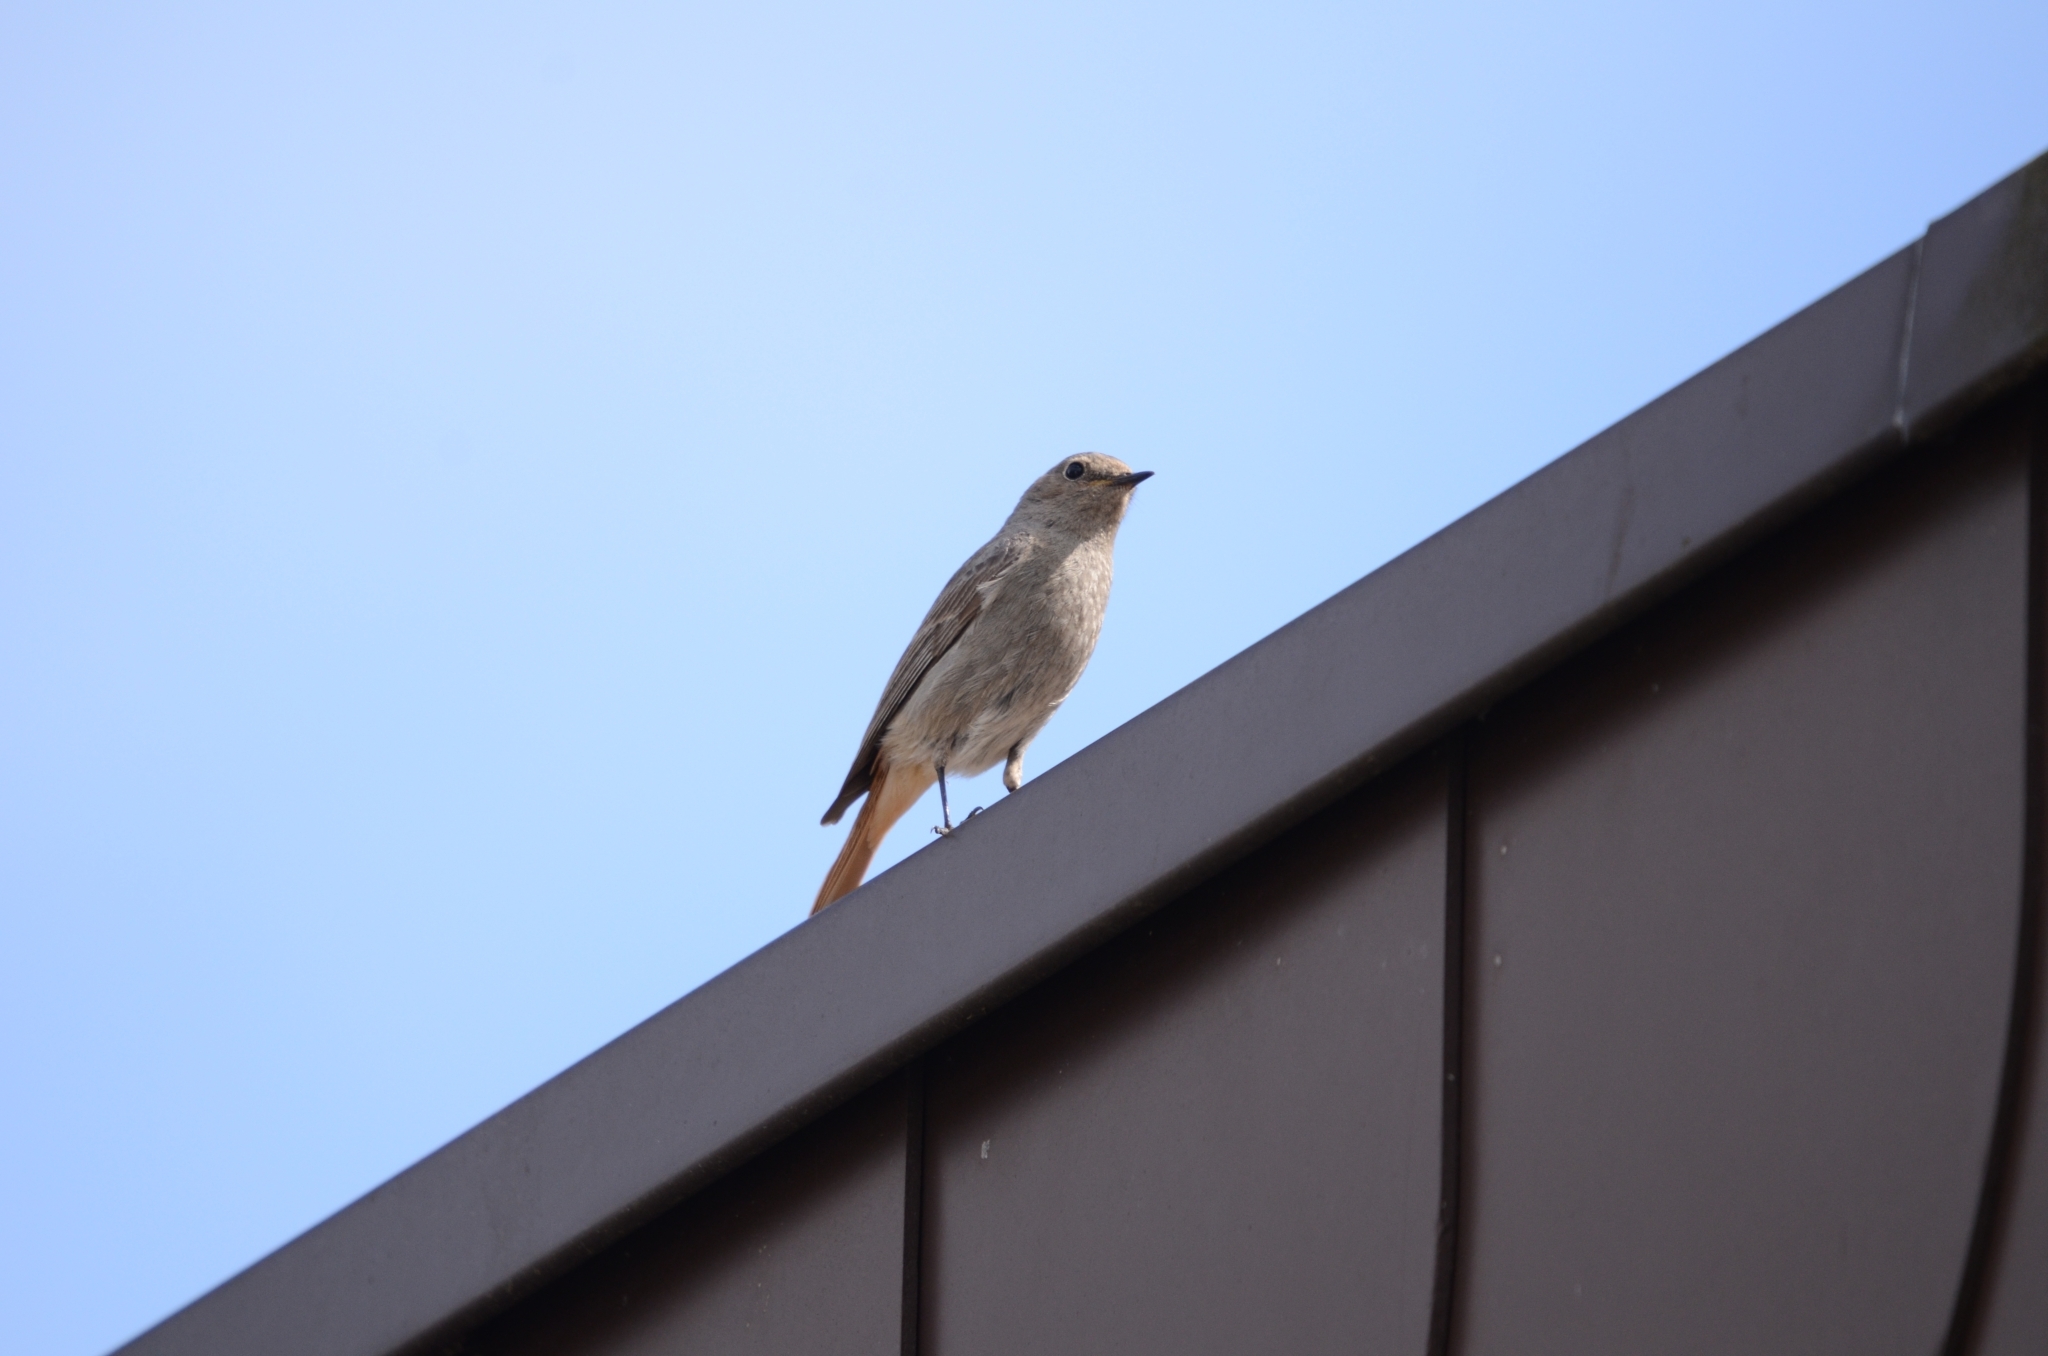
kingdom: Animalia
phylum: Chordata
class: Aves
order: Passeriformes
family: Muscicapidae
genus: Phoenicurus
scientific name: Phoenicurus ochruros
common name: Black redstart
